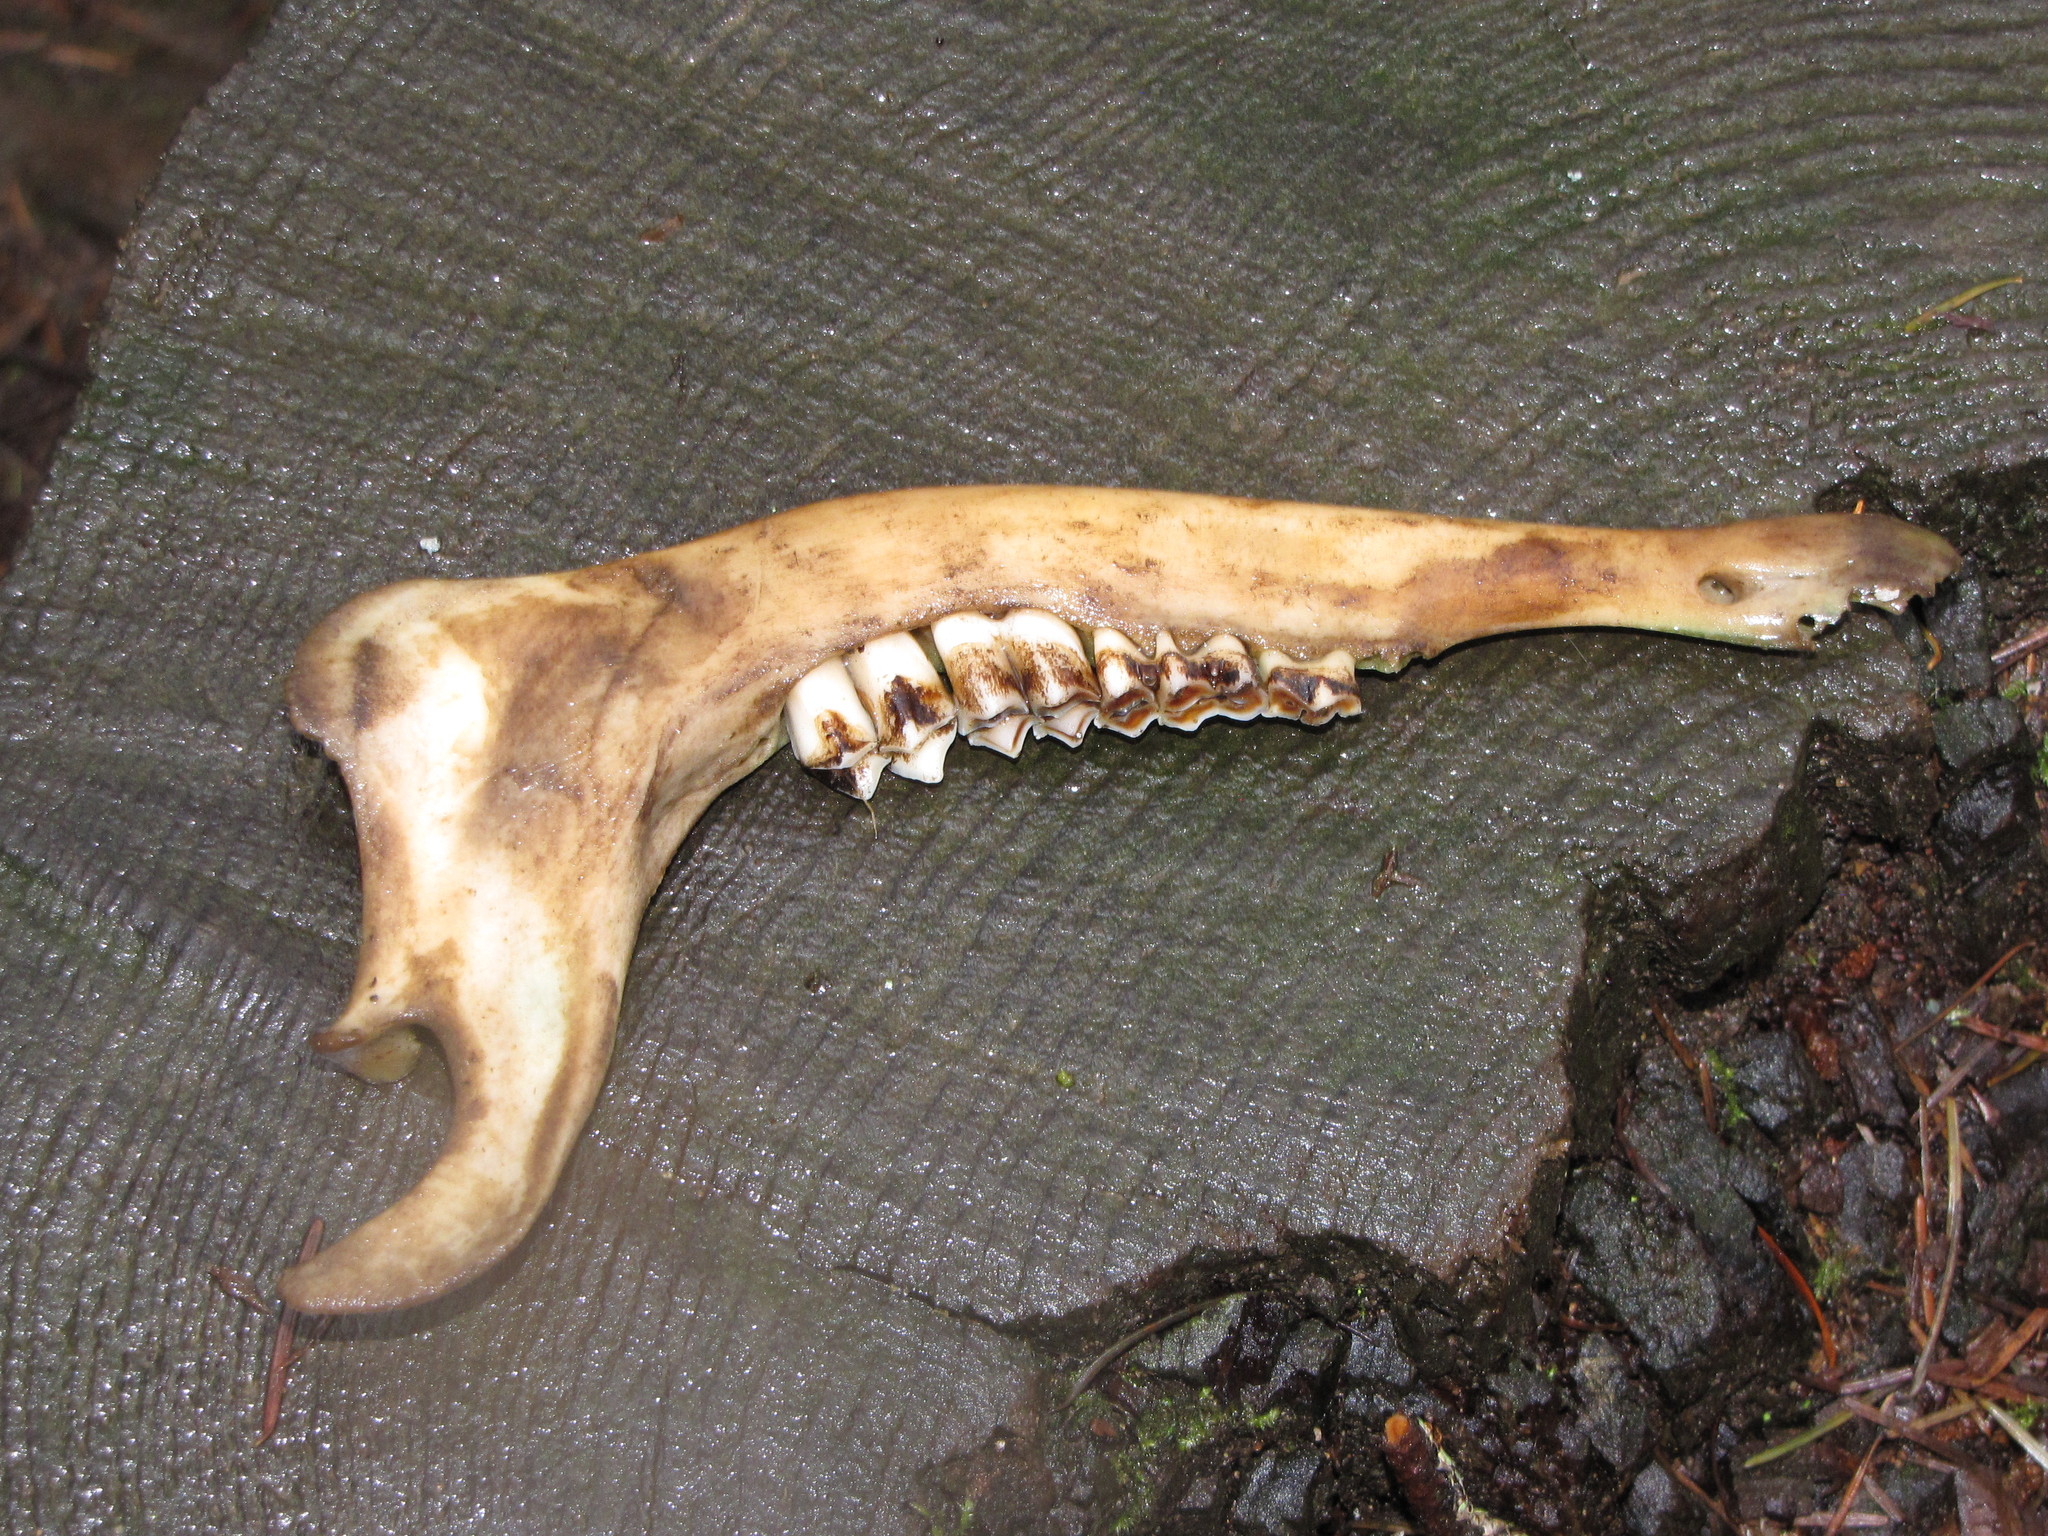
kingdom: Animalia
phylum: Chordata
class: Mammalia
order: Artiodactyla
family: Cervidae
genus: Odocoileus
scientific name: Odocoileus hemionus
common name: Mule deer
